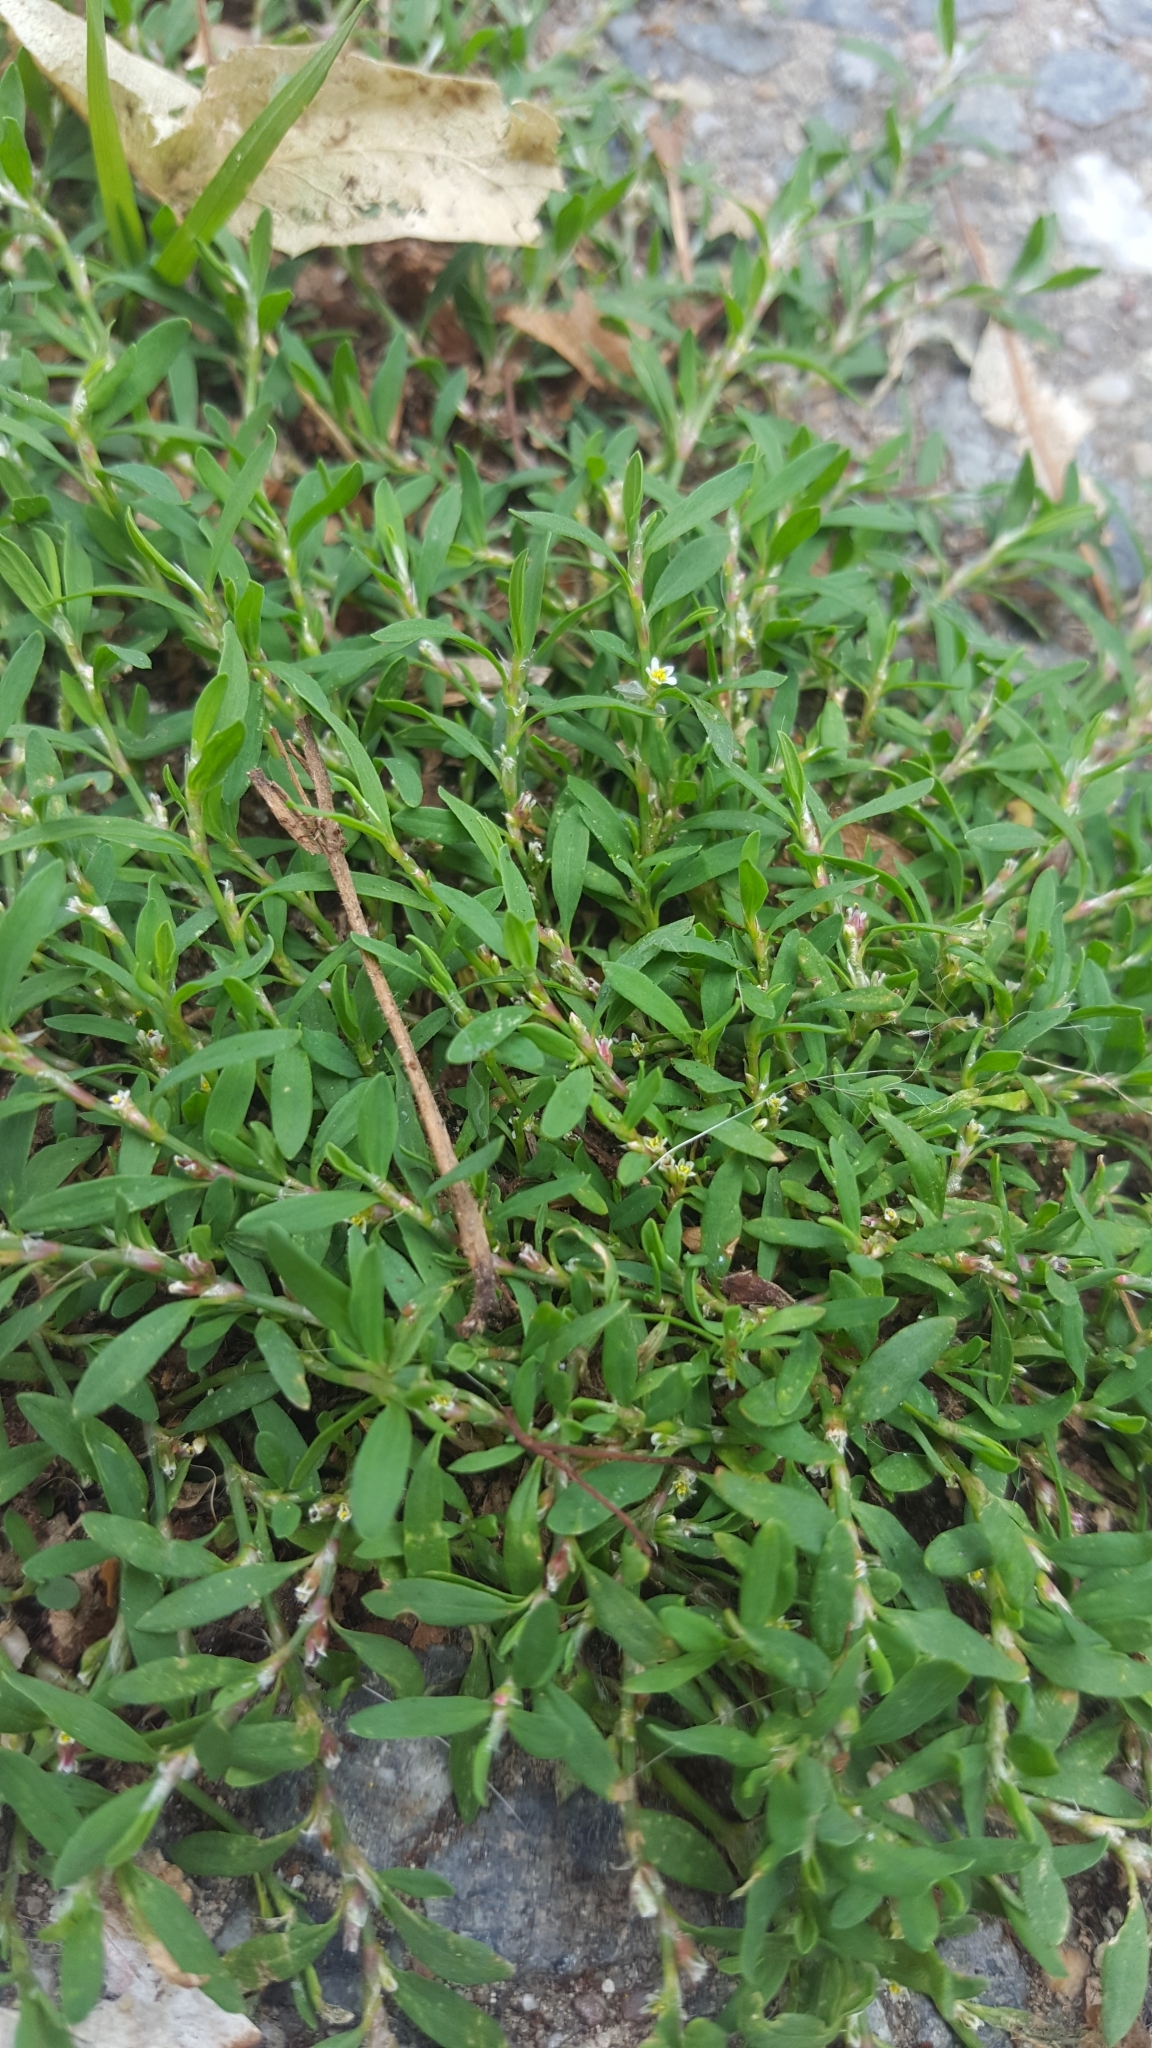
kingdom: Plantae
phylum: Tracheophyta
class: Magnoliopsida
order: Caryophyllales
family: Polygonaceae
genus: Polygonum
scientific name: Polygonum aviculare
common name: Prostrate knotweed
